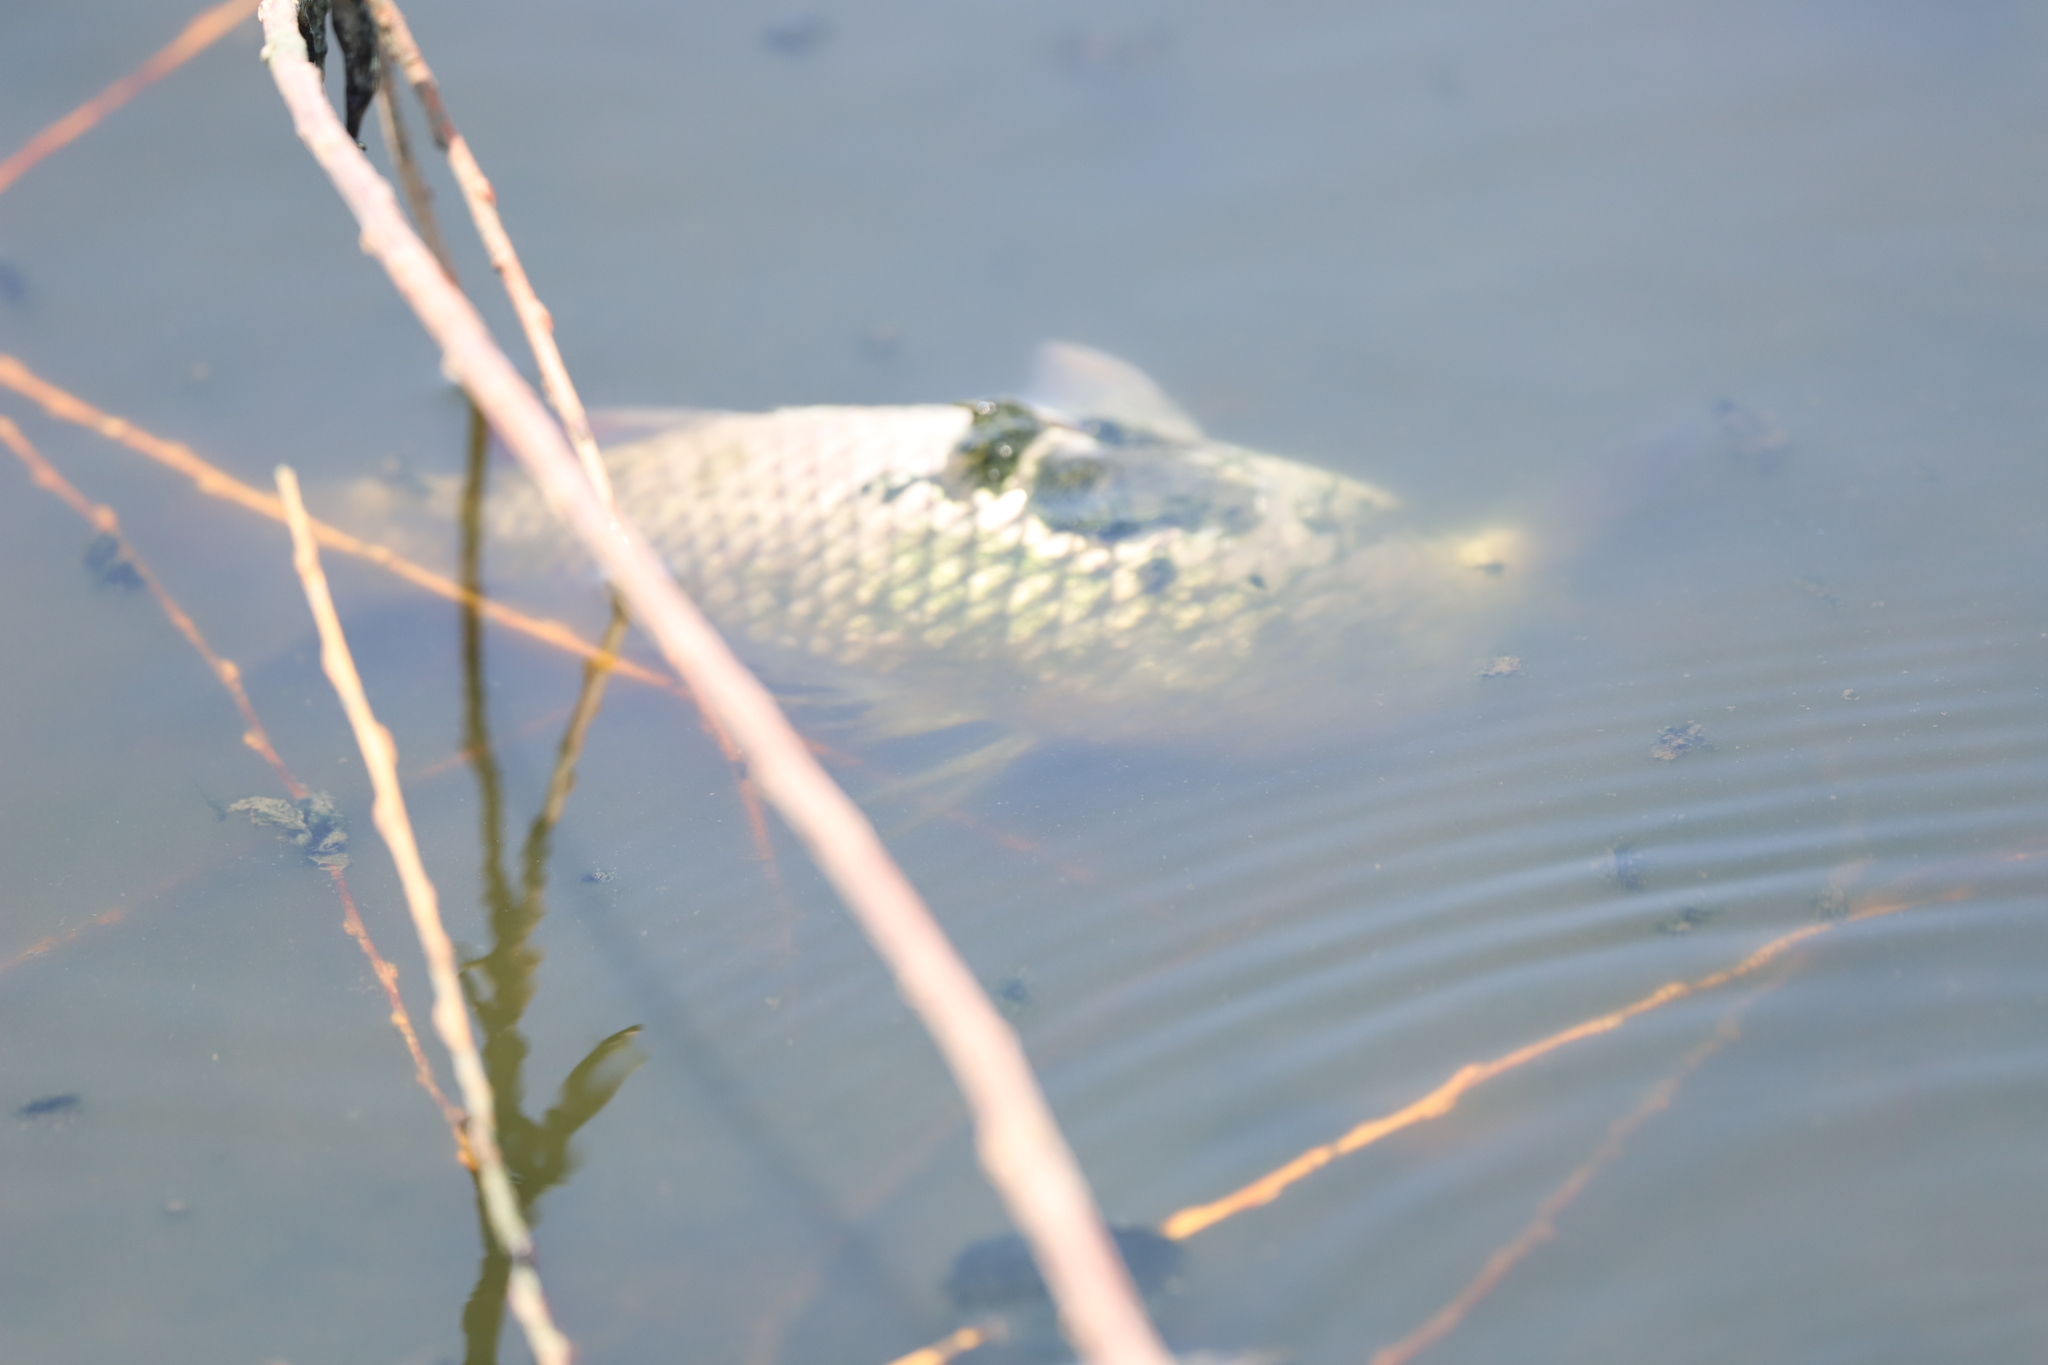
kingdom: Animalia
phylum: Chordata
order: Cypriniformes
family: Cyprinidae
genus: Cyprinus
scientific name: Cyprinus carpio
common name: Common carp
